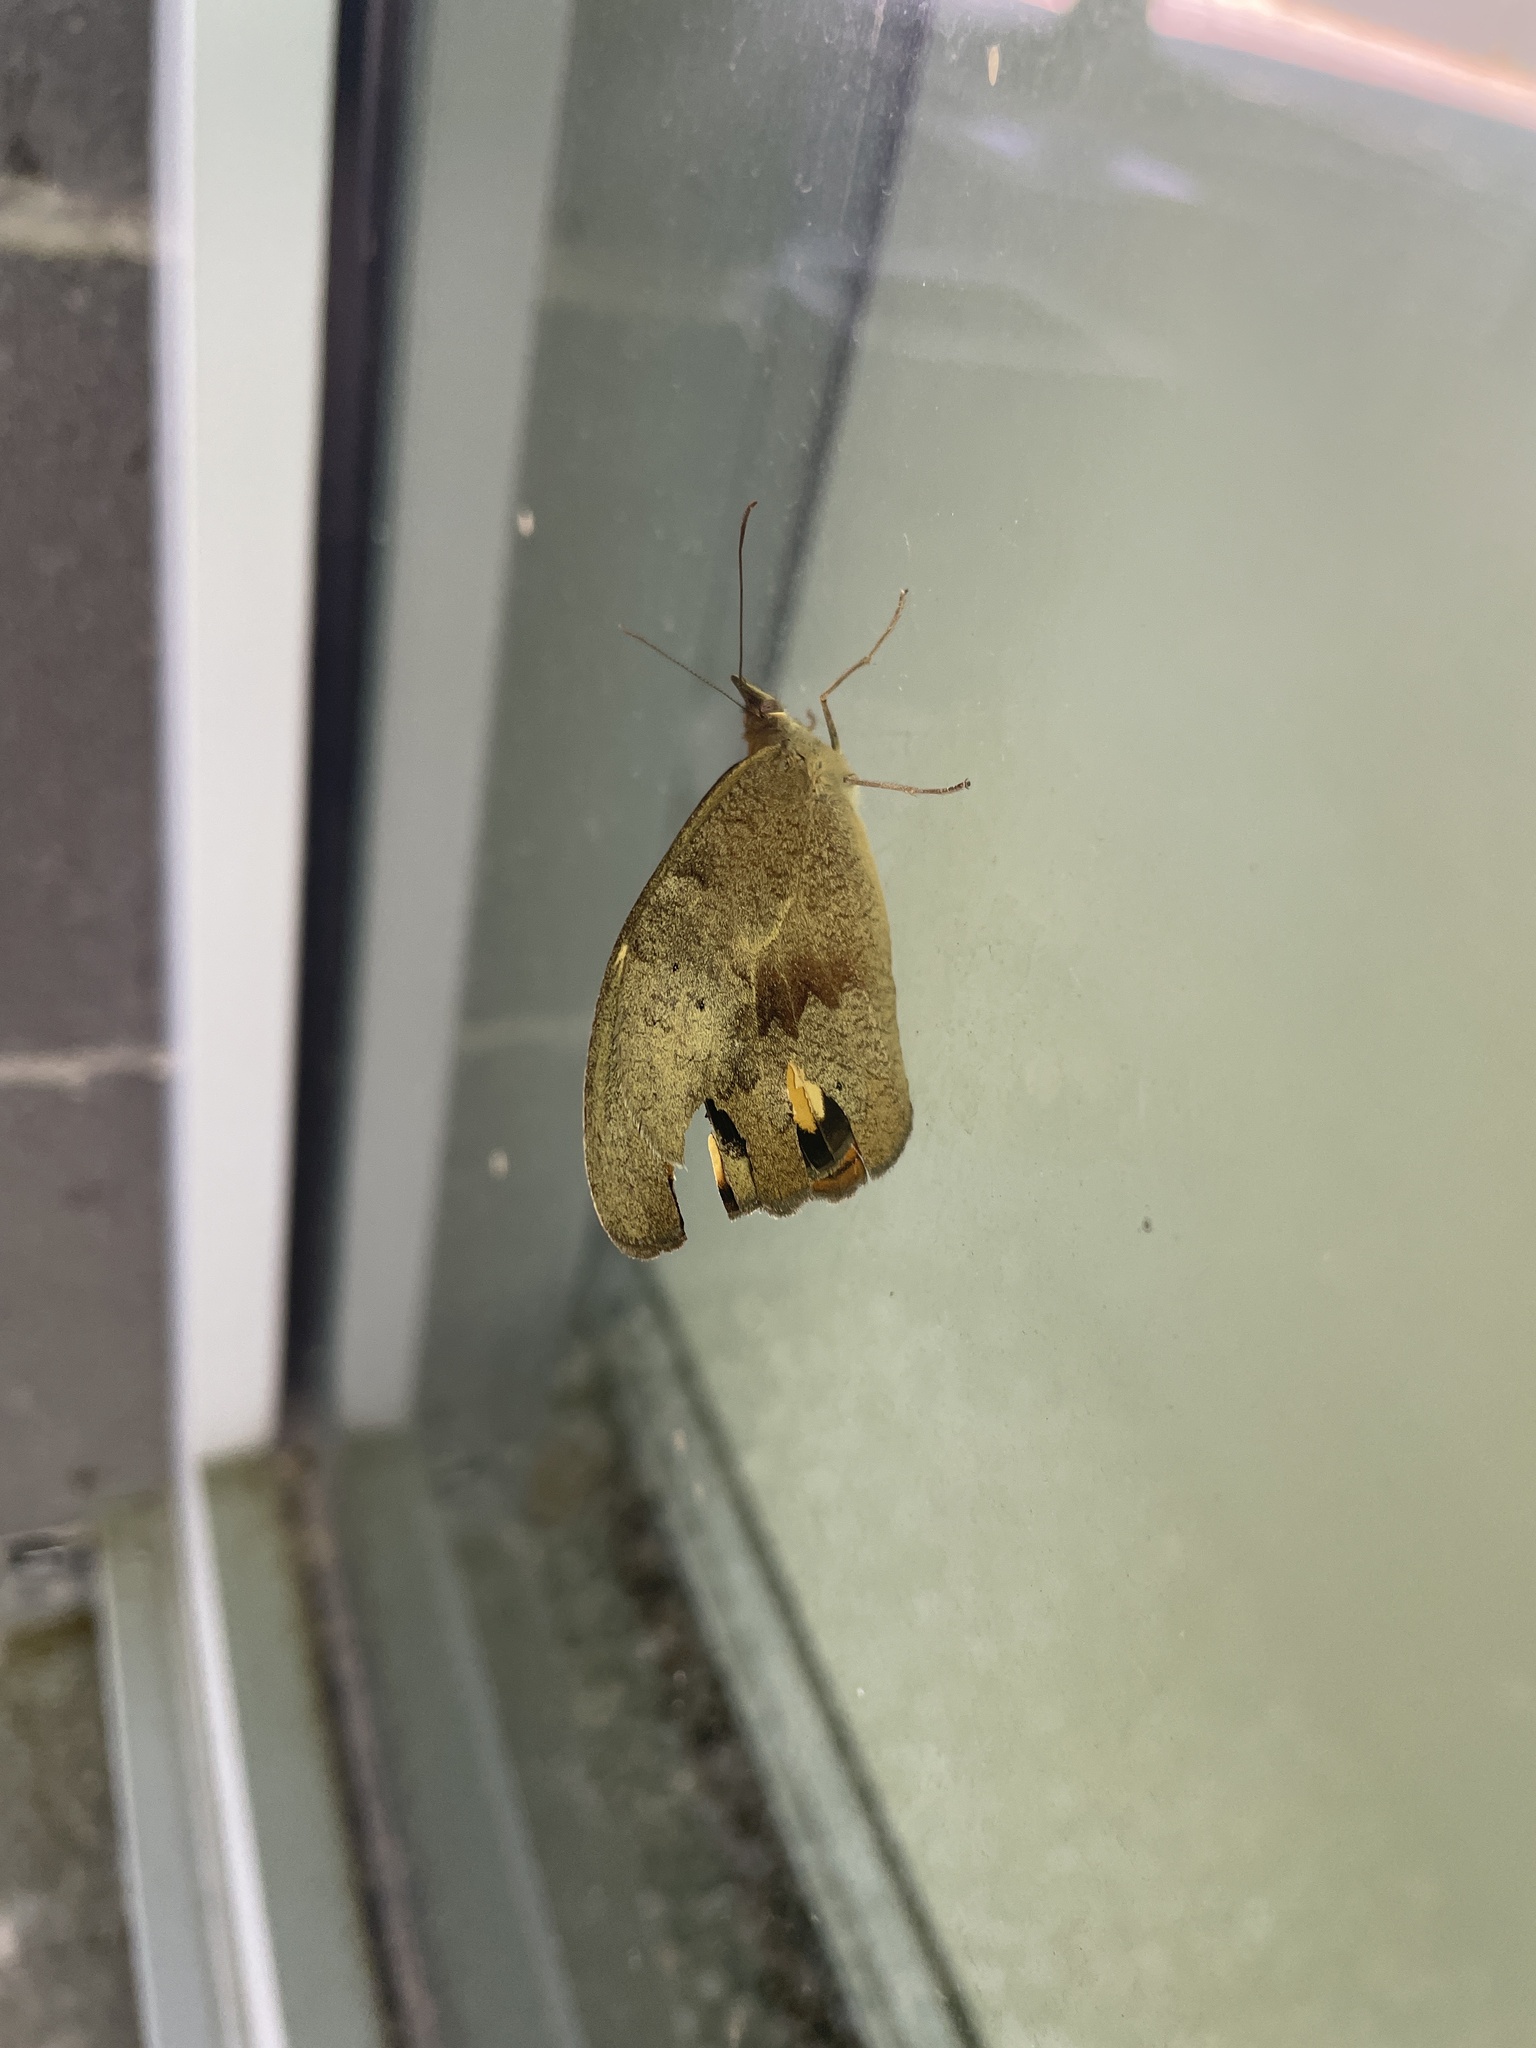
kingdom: Animalia
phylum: Arthropoda
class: Insecta
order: Lepidoptera
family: Nymphalidae
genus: Heteronympha
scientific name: Heteronympha merope
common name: Common brown
